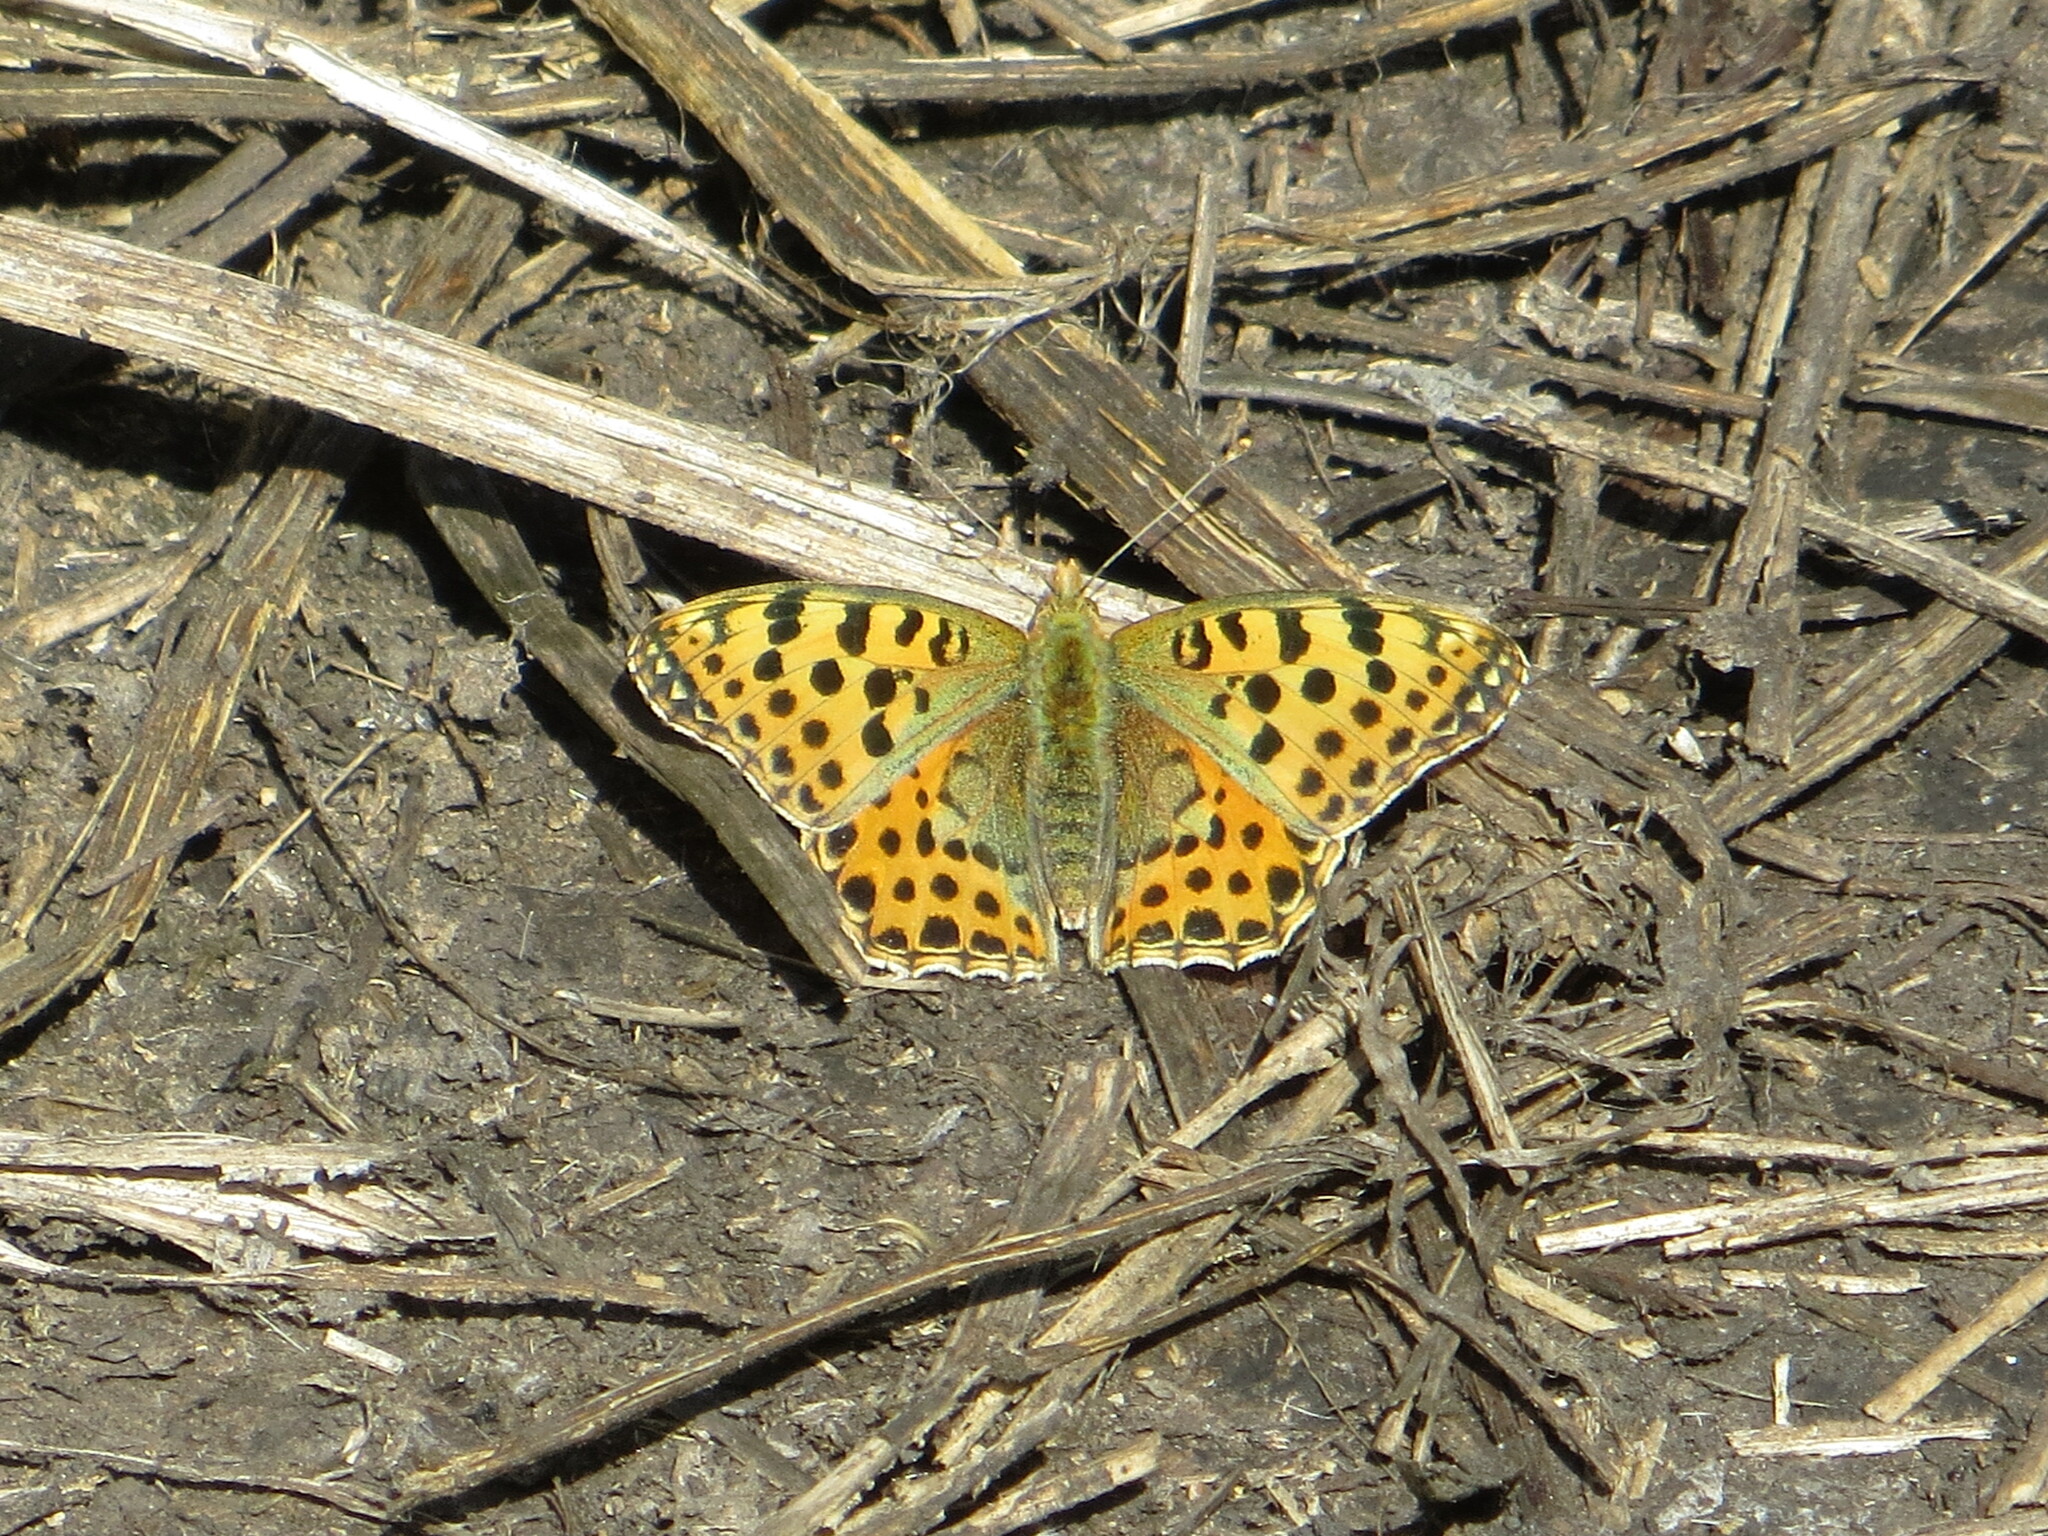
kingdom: Animalia
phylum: Arthropoda
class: Insecta
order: Lepidoptera
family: Nymphalidae
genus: Issoria
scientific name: Issoria lathonia
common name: Queen of spain fritillary
